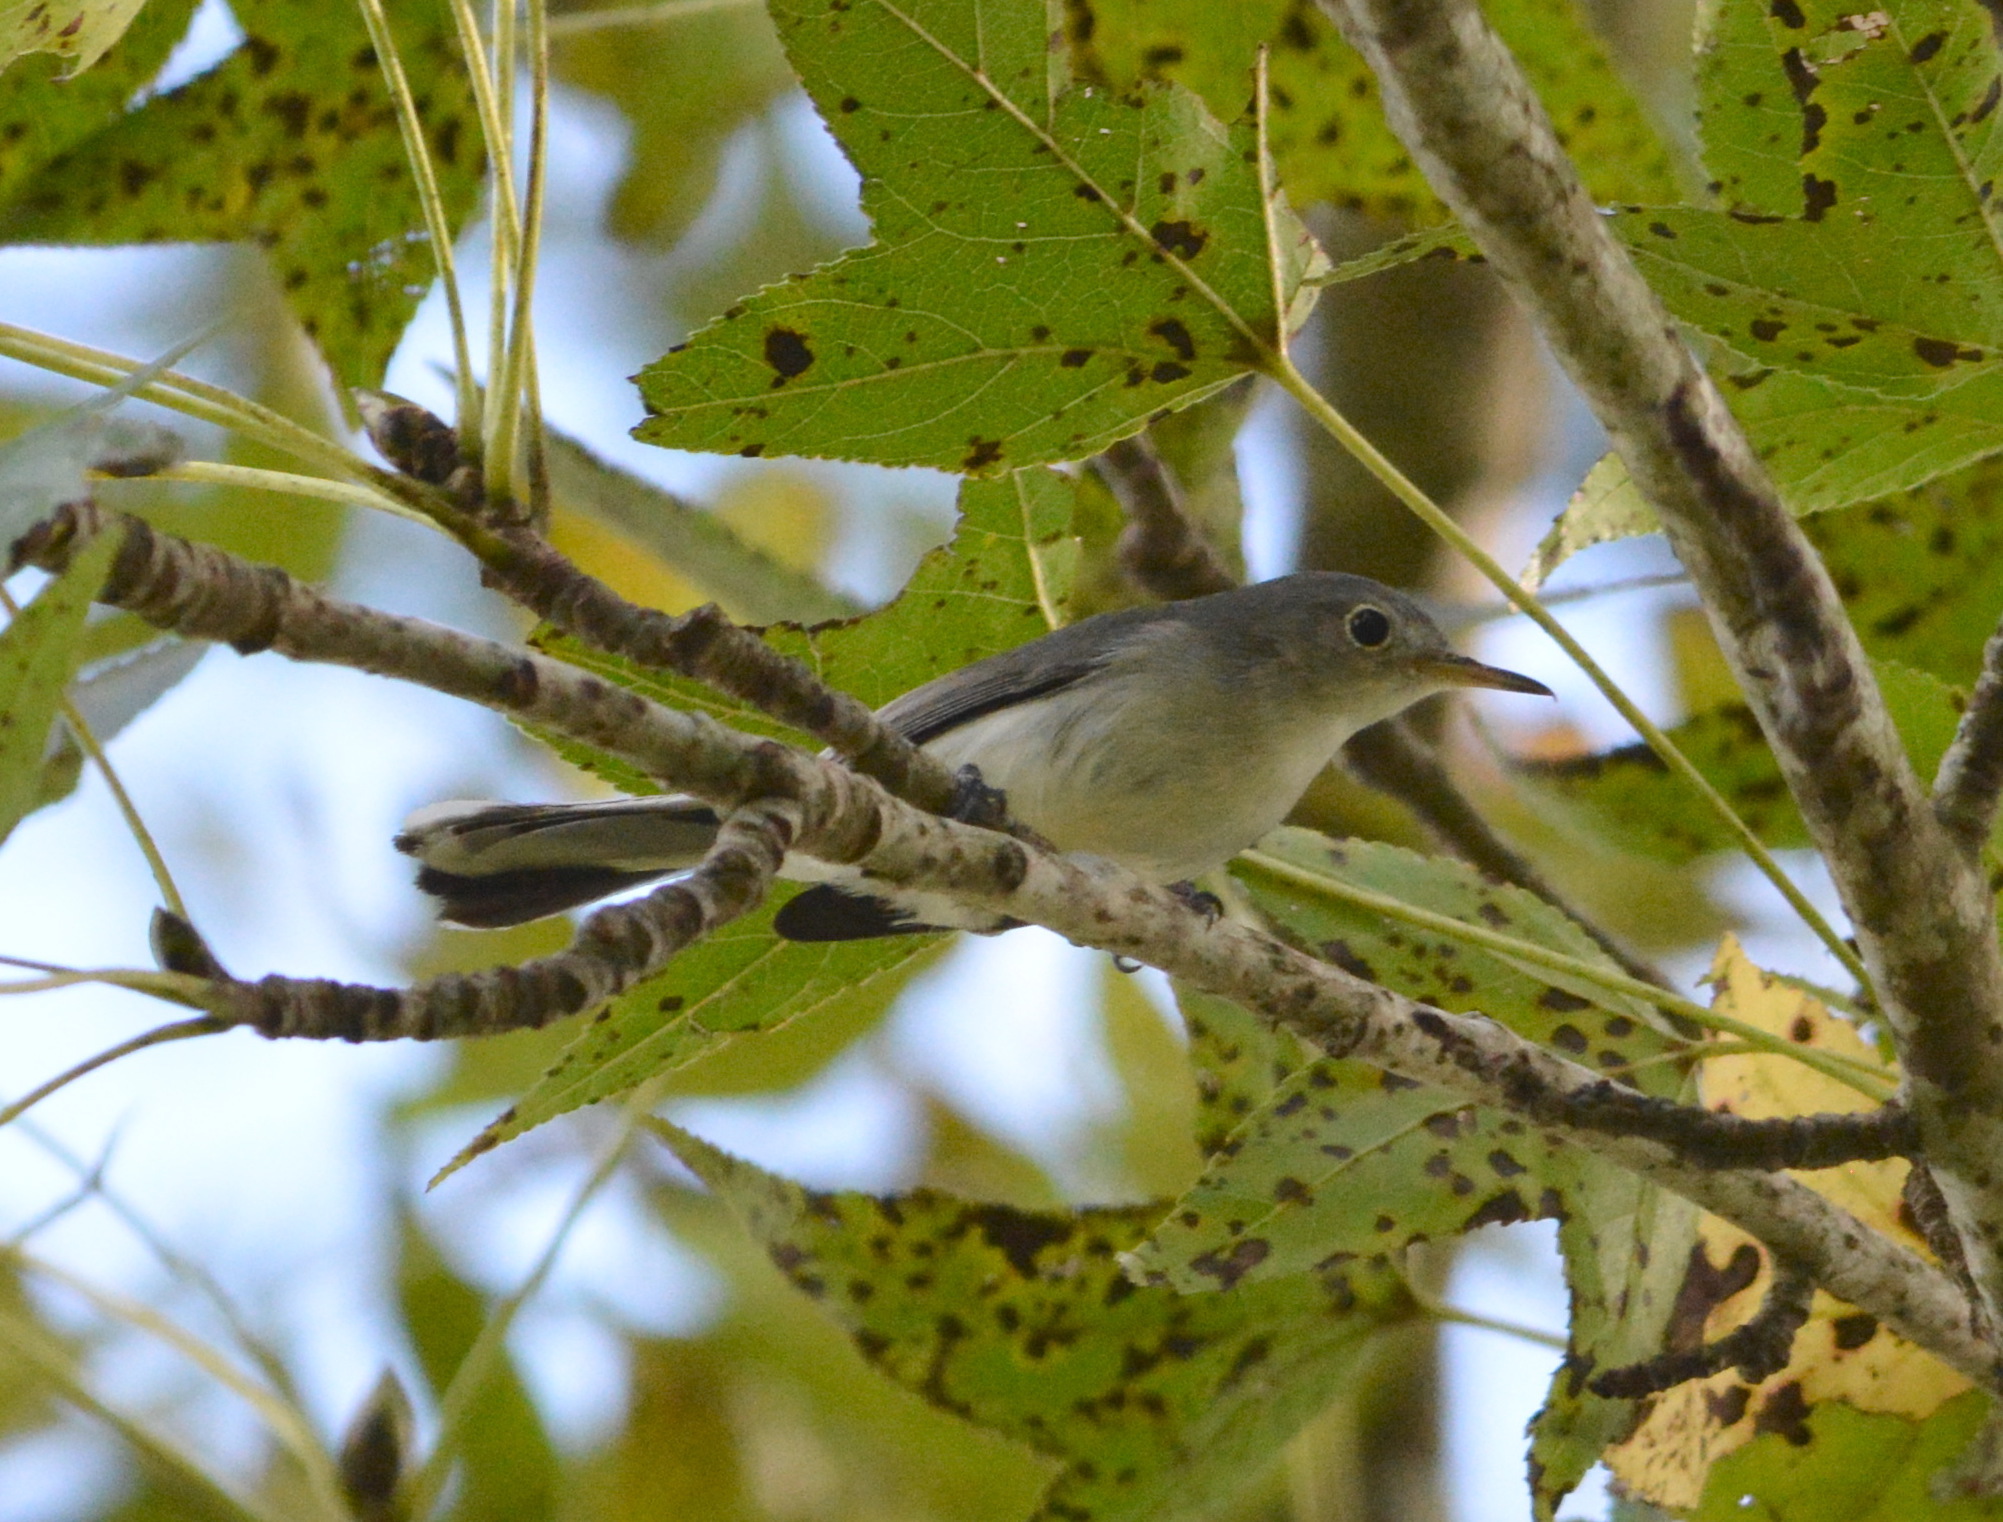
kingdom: Animalia
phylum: Chordata
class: Aves
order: Passeriformes
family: Polioptilidae
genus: Polioptila
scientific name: Polioptila caerulea
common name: Blue-gray gnatcatcher
